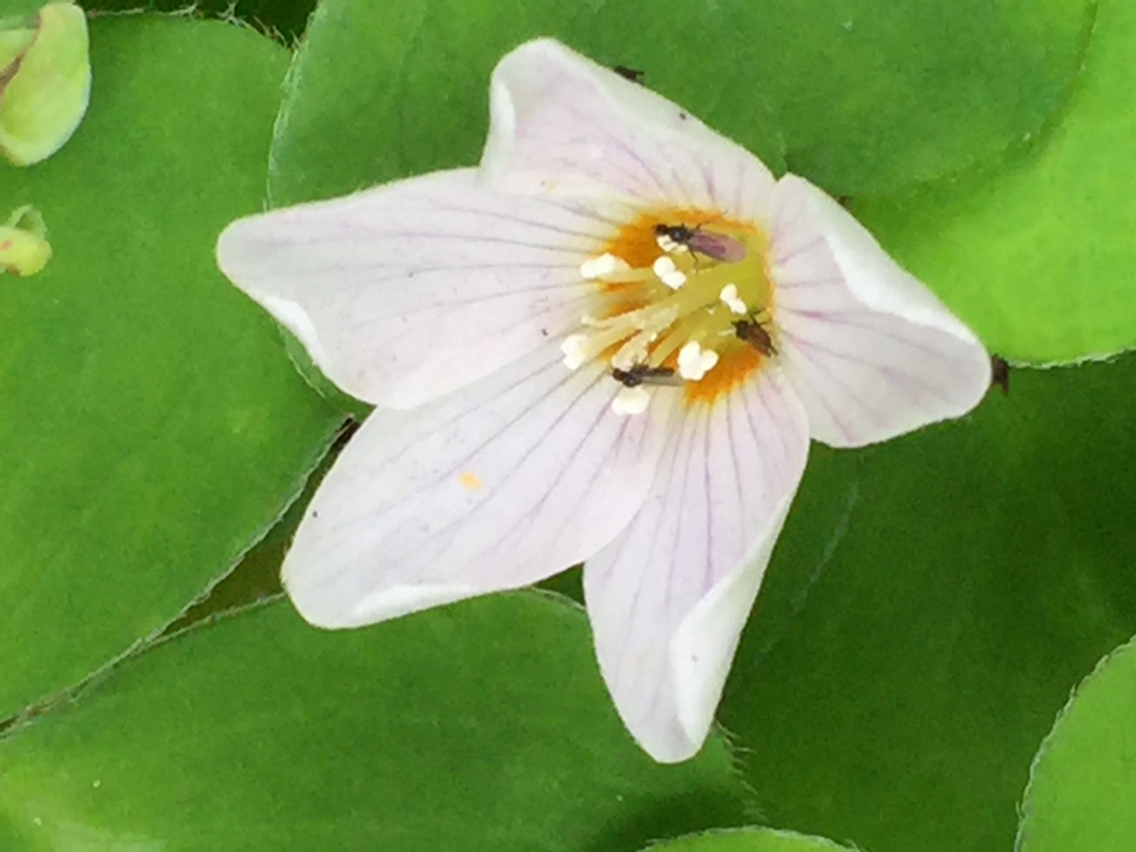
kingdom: Plantae
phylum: Tracheophyta
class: Magnoliopsida
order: Oxalidales
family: Oxalidaceae
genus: Oxalis
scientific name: Oxalis oregana
